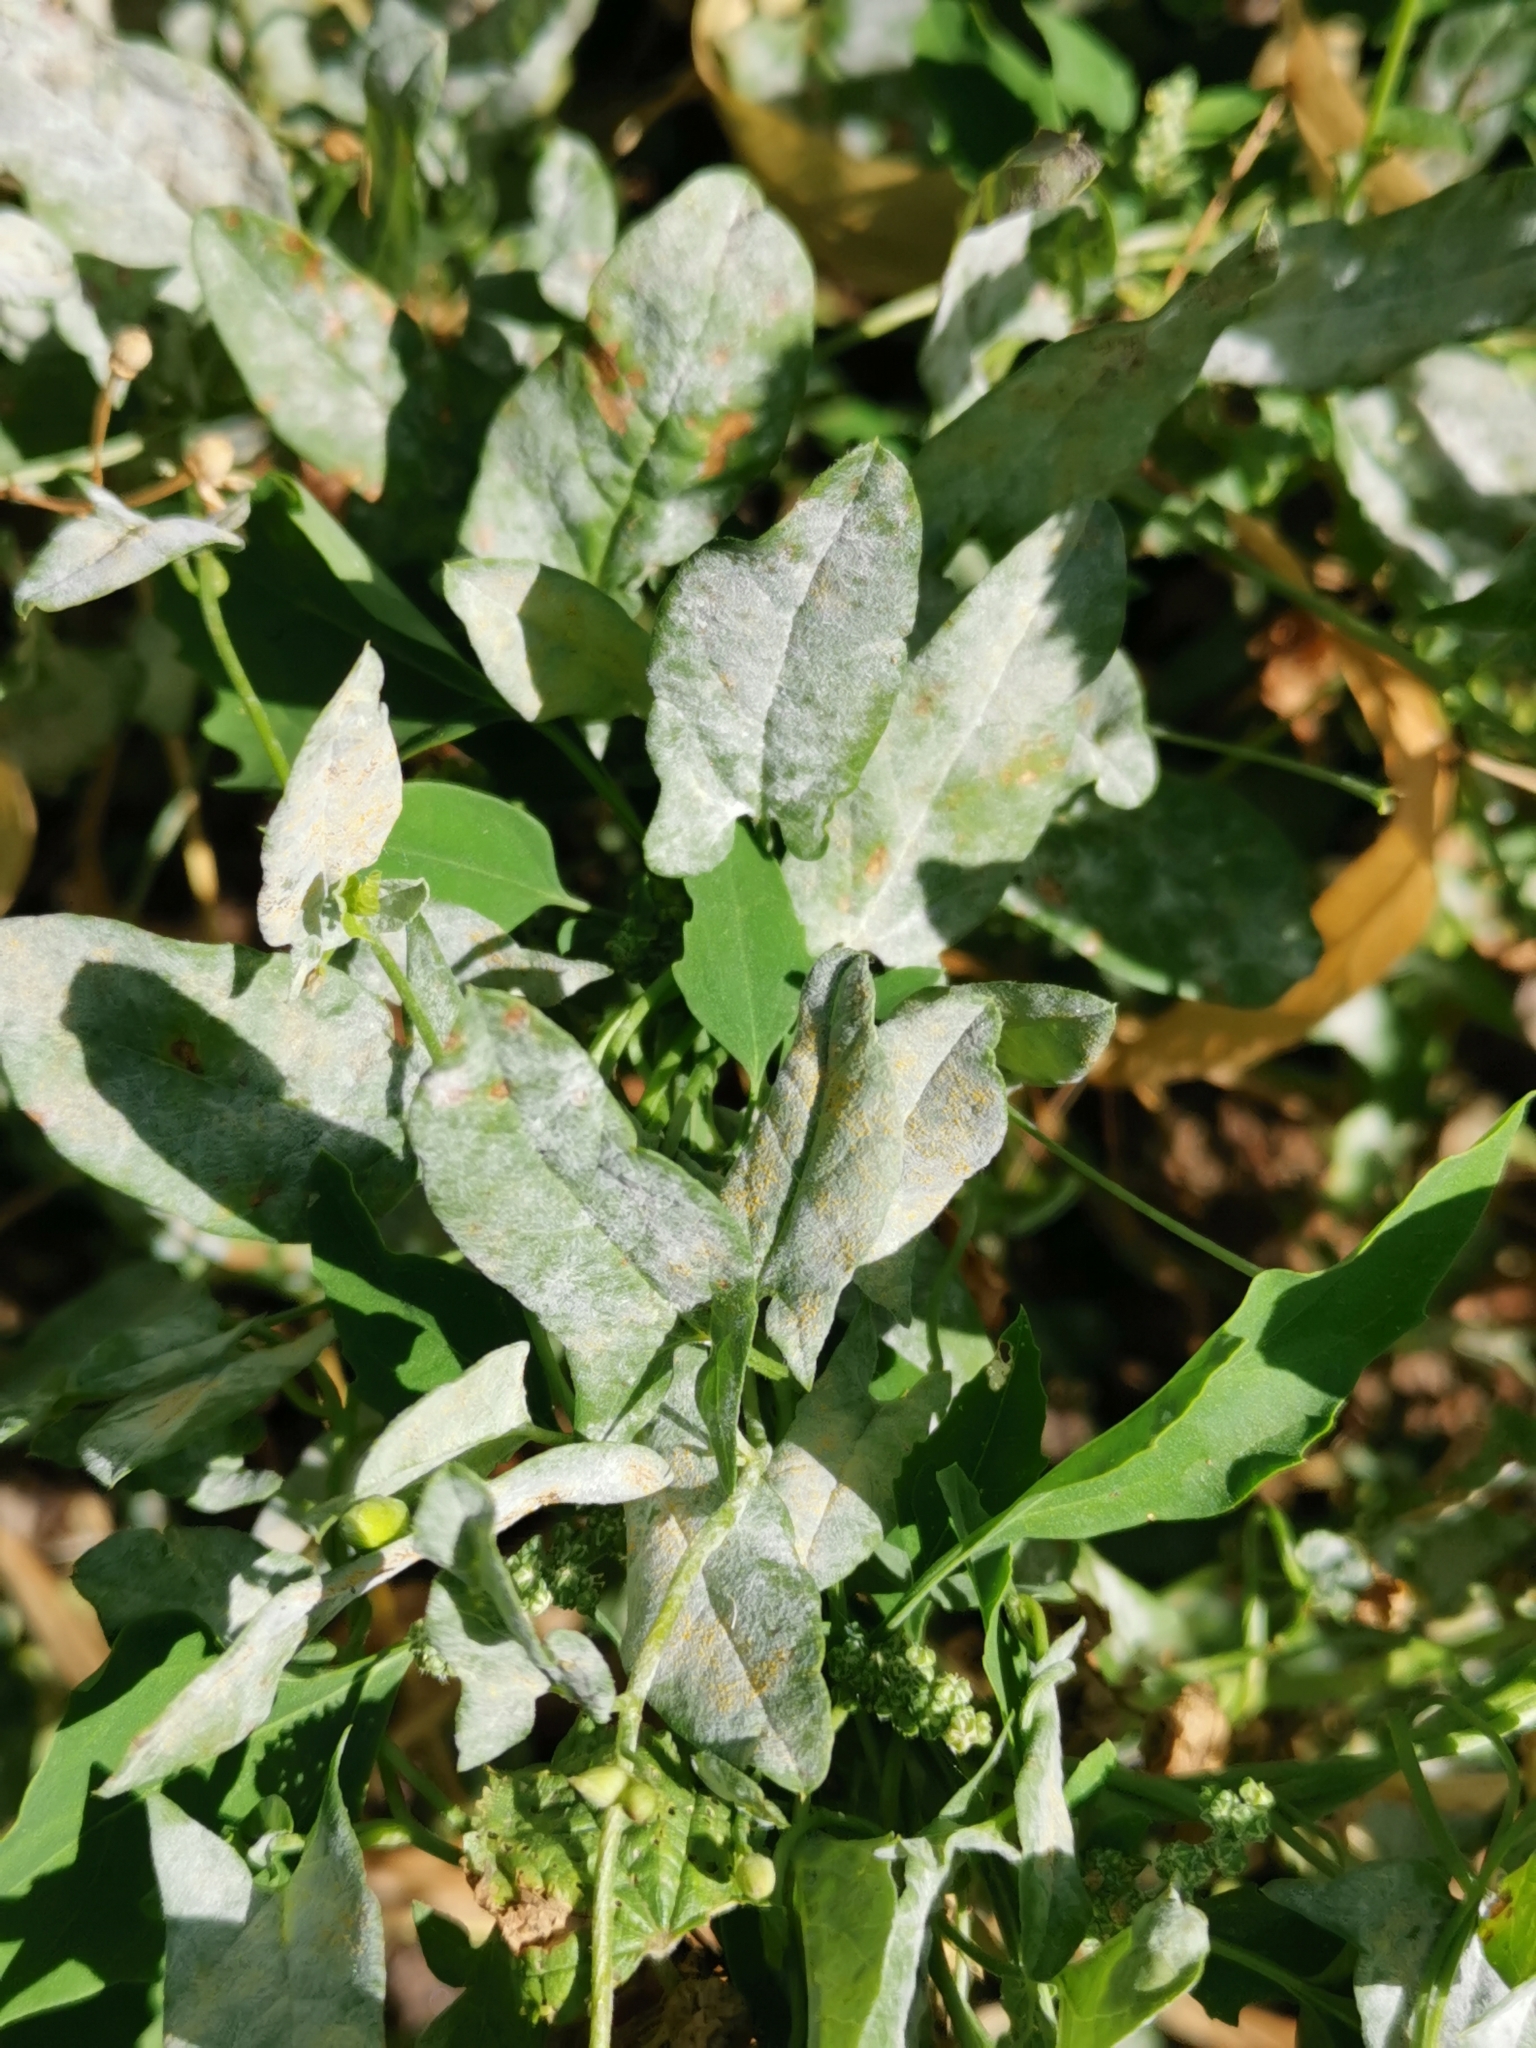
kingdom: Fungi
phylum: Ascomycota
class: Leotiomycetes
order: Helotiales
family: Erysiphaceae
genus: Erysiphe
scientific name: Erysiphe convolvuli
